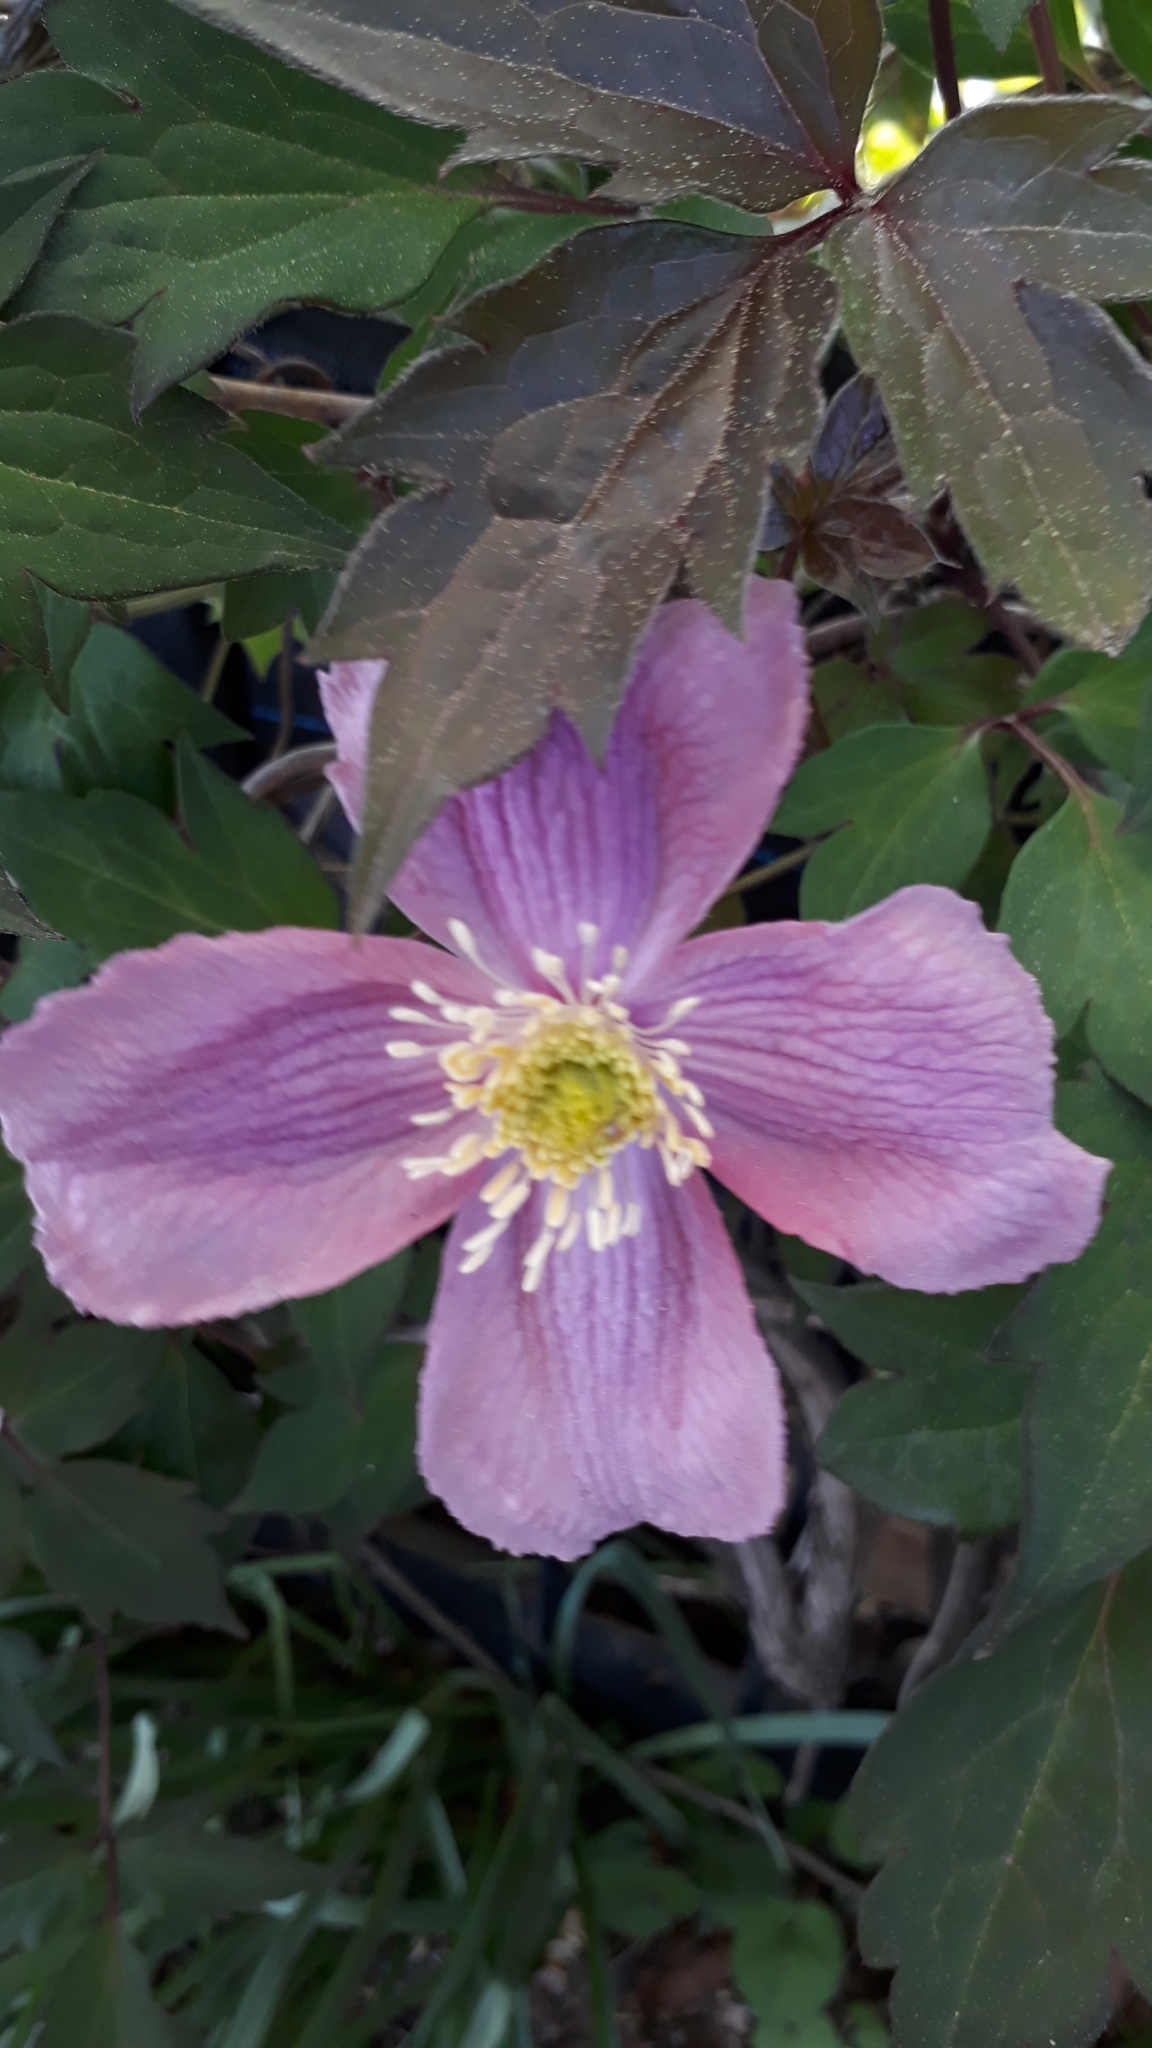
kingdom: Plantae
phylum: Tracheophyta
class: Magnoliopsida
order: Ranunculales
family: Ranunculaceae
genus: Clematis
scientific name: Clematis montana
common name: Himalayan clematis
